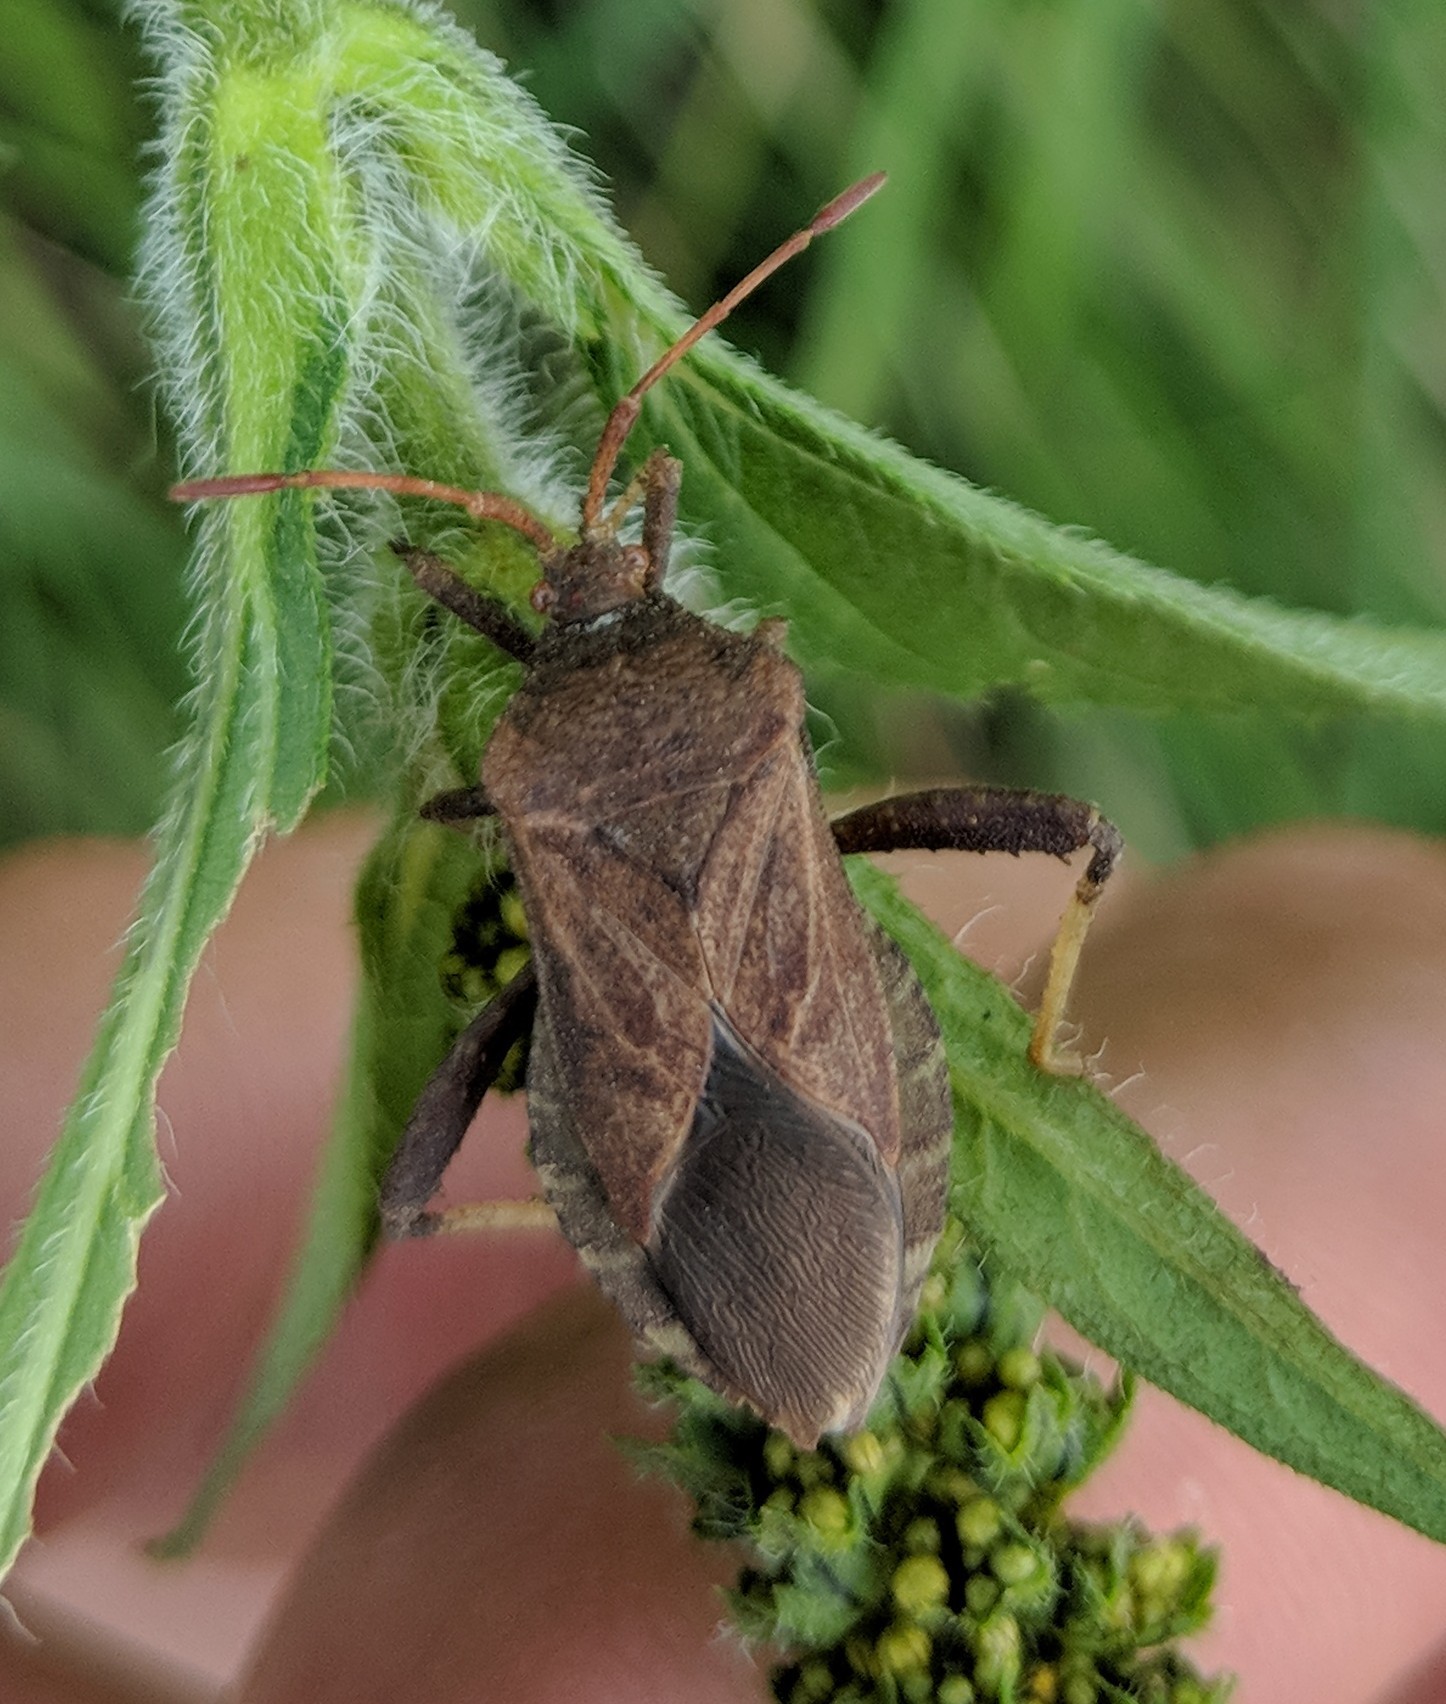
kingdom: Animalia
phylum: Arthropoda
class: Insecta
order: Hemiptera
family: Coreidae
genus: Euthochtha
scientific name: Euthochtha galeator
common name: Helmeted squash bug
